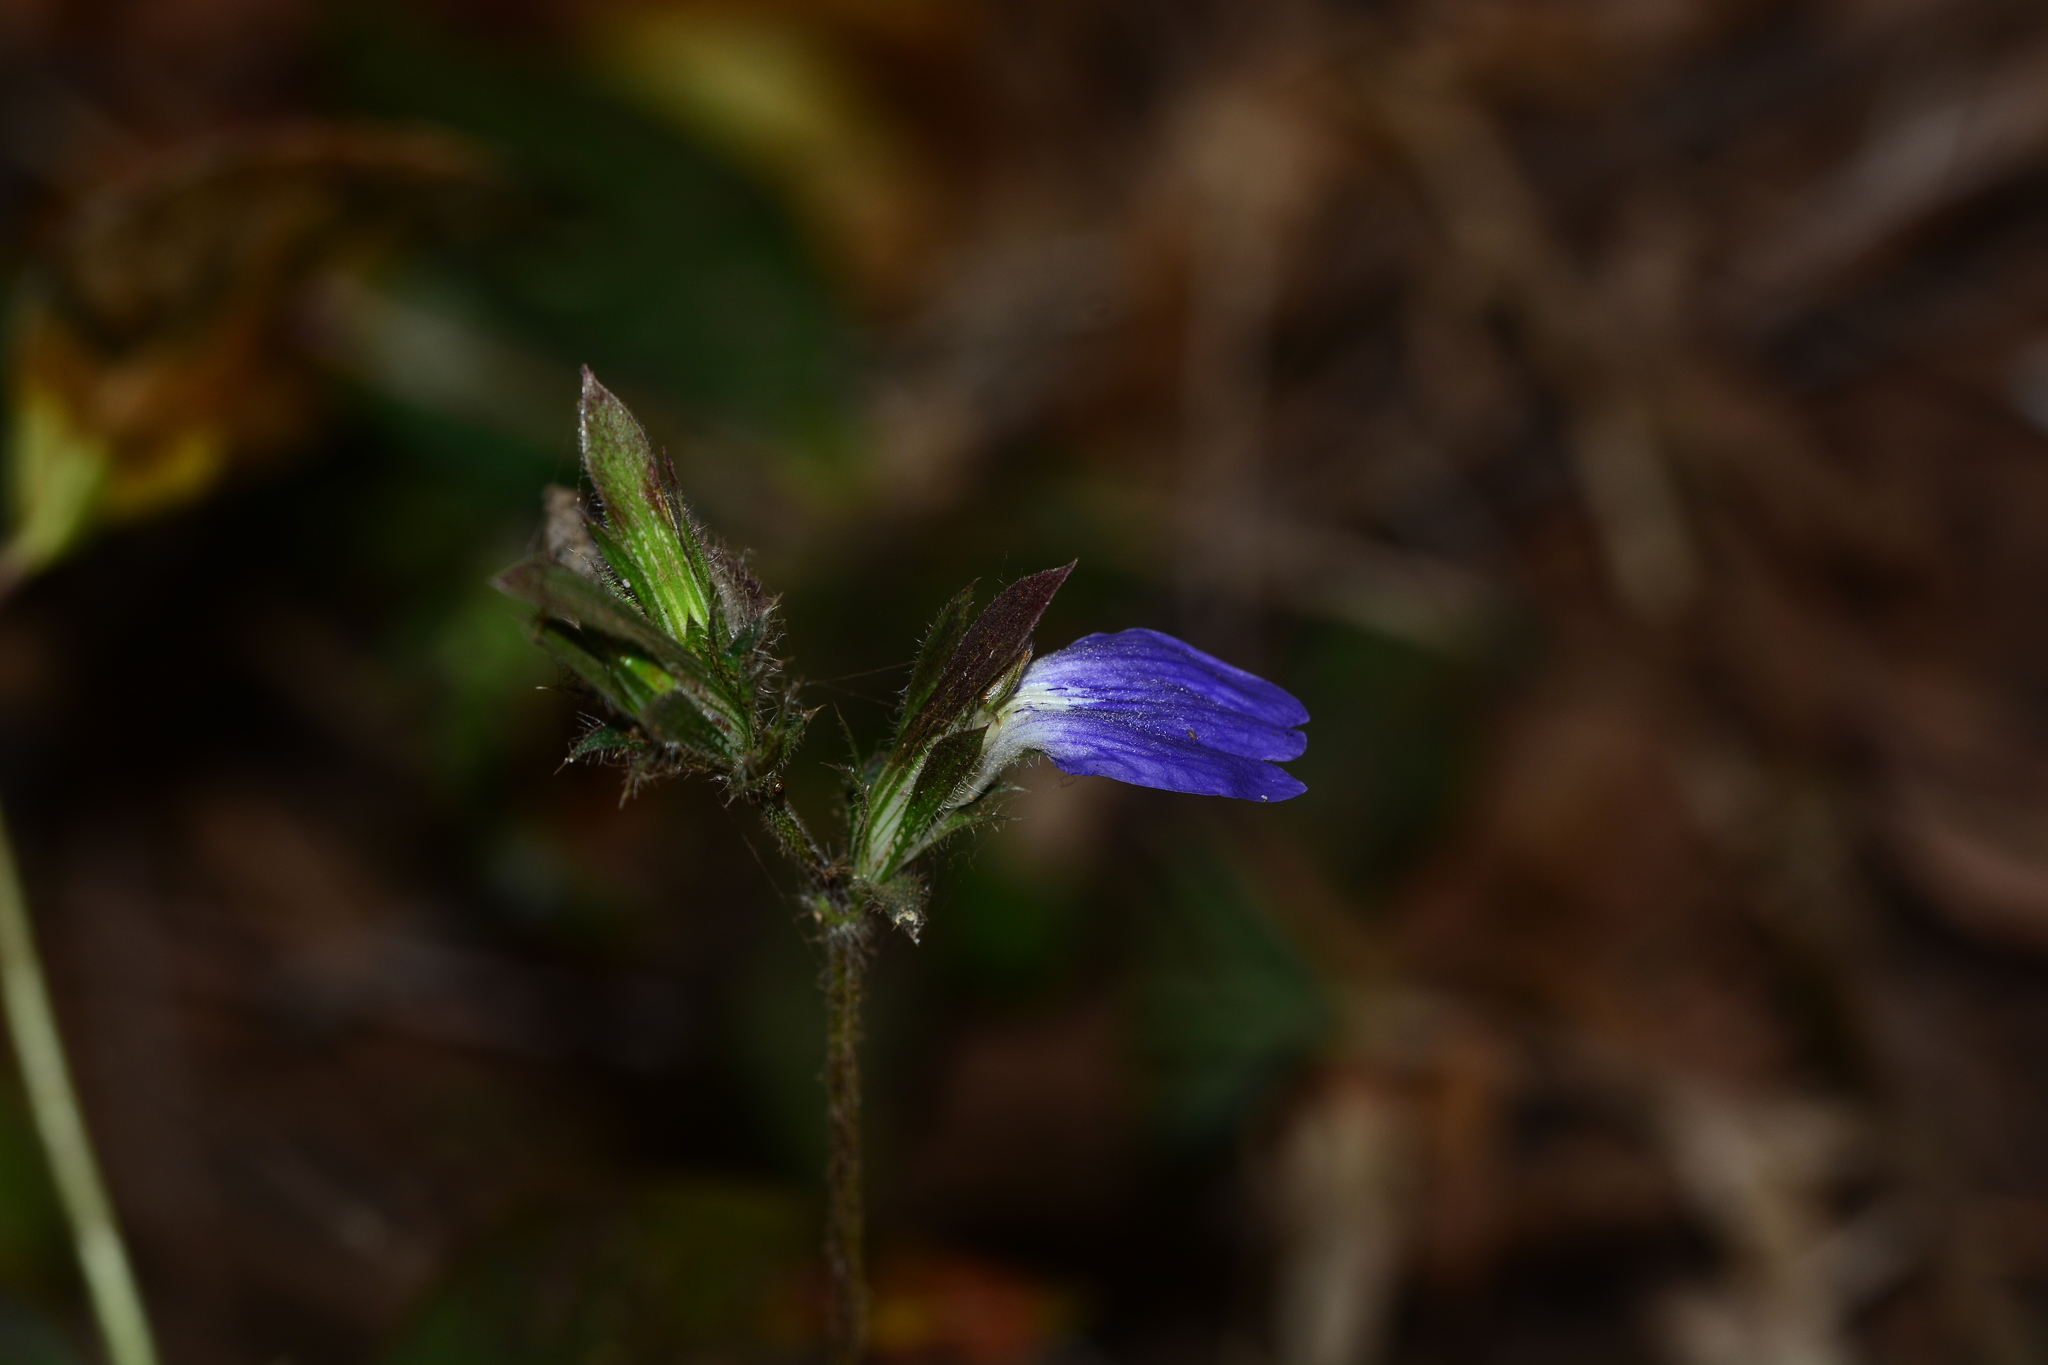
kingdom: Plantae
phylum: Tracheophyta
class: Magnoliopsida
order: Lamiales
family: Acanthaceae
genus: Cynarospermum
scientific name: Cynarospermum asperrimum
